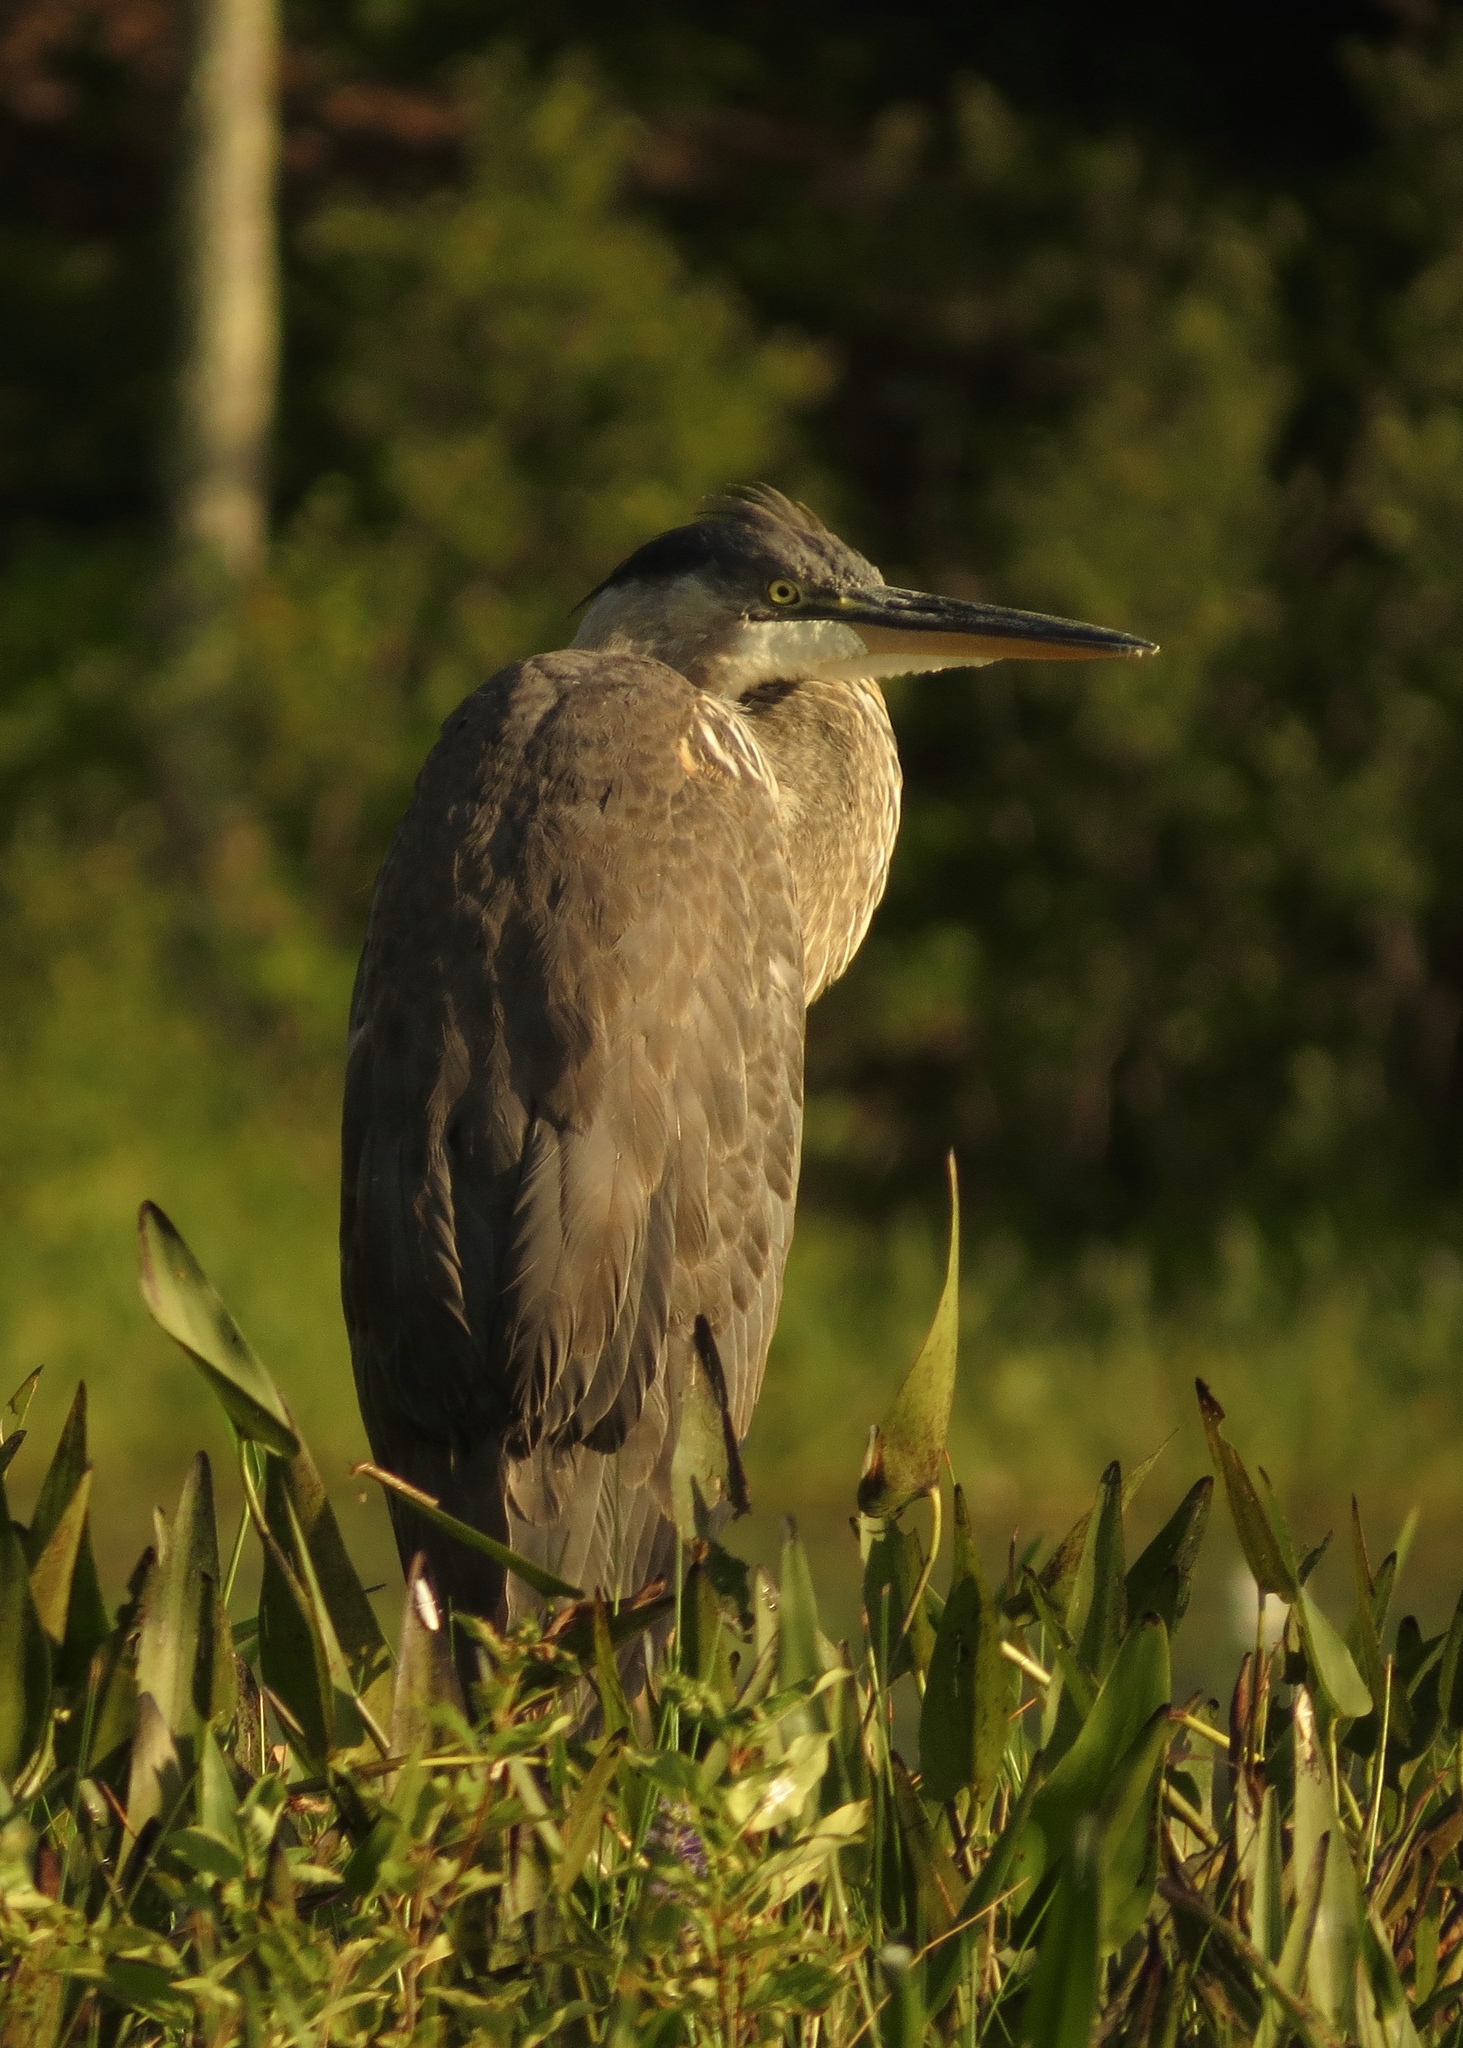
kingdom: Animalia
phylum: Chordata
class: Aves
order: Pelecaniformes
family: Ardeidae
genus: Ardea
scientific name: Ardea herodias
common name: Great blue heron
